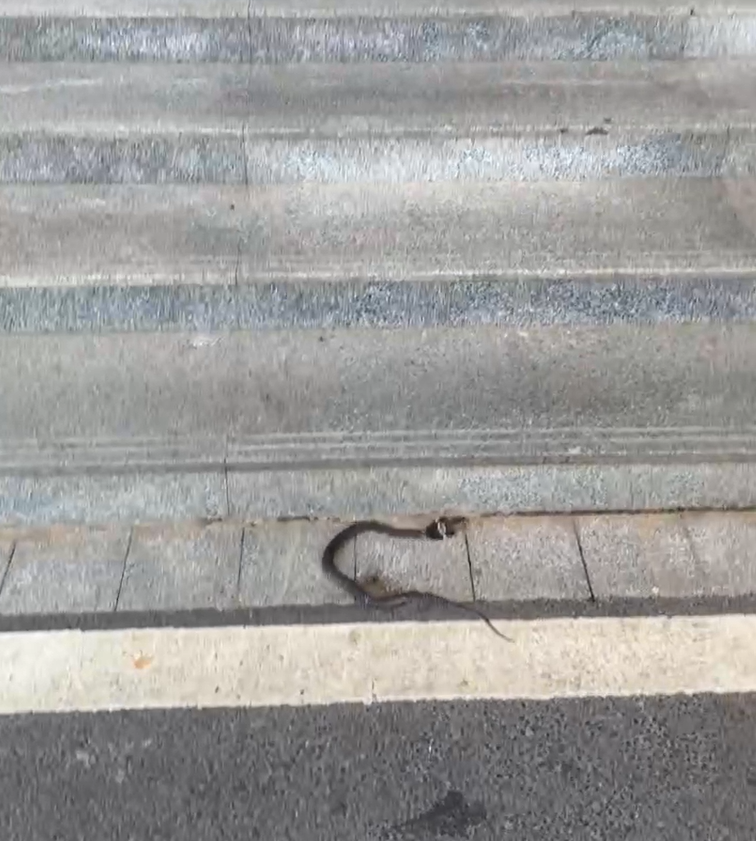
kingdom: Animalia
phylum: Chordata
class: Squamata
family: Elapidae
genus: Naja
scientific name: Naja atra
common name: Chinese cobra
